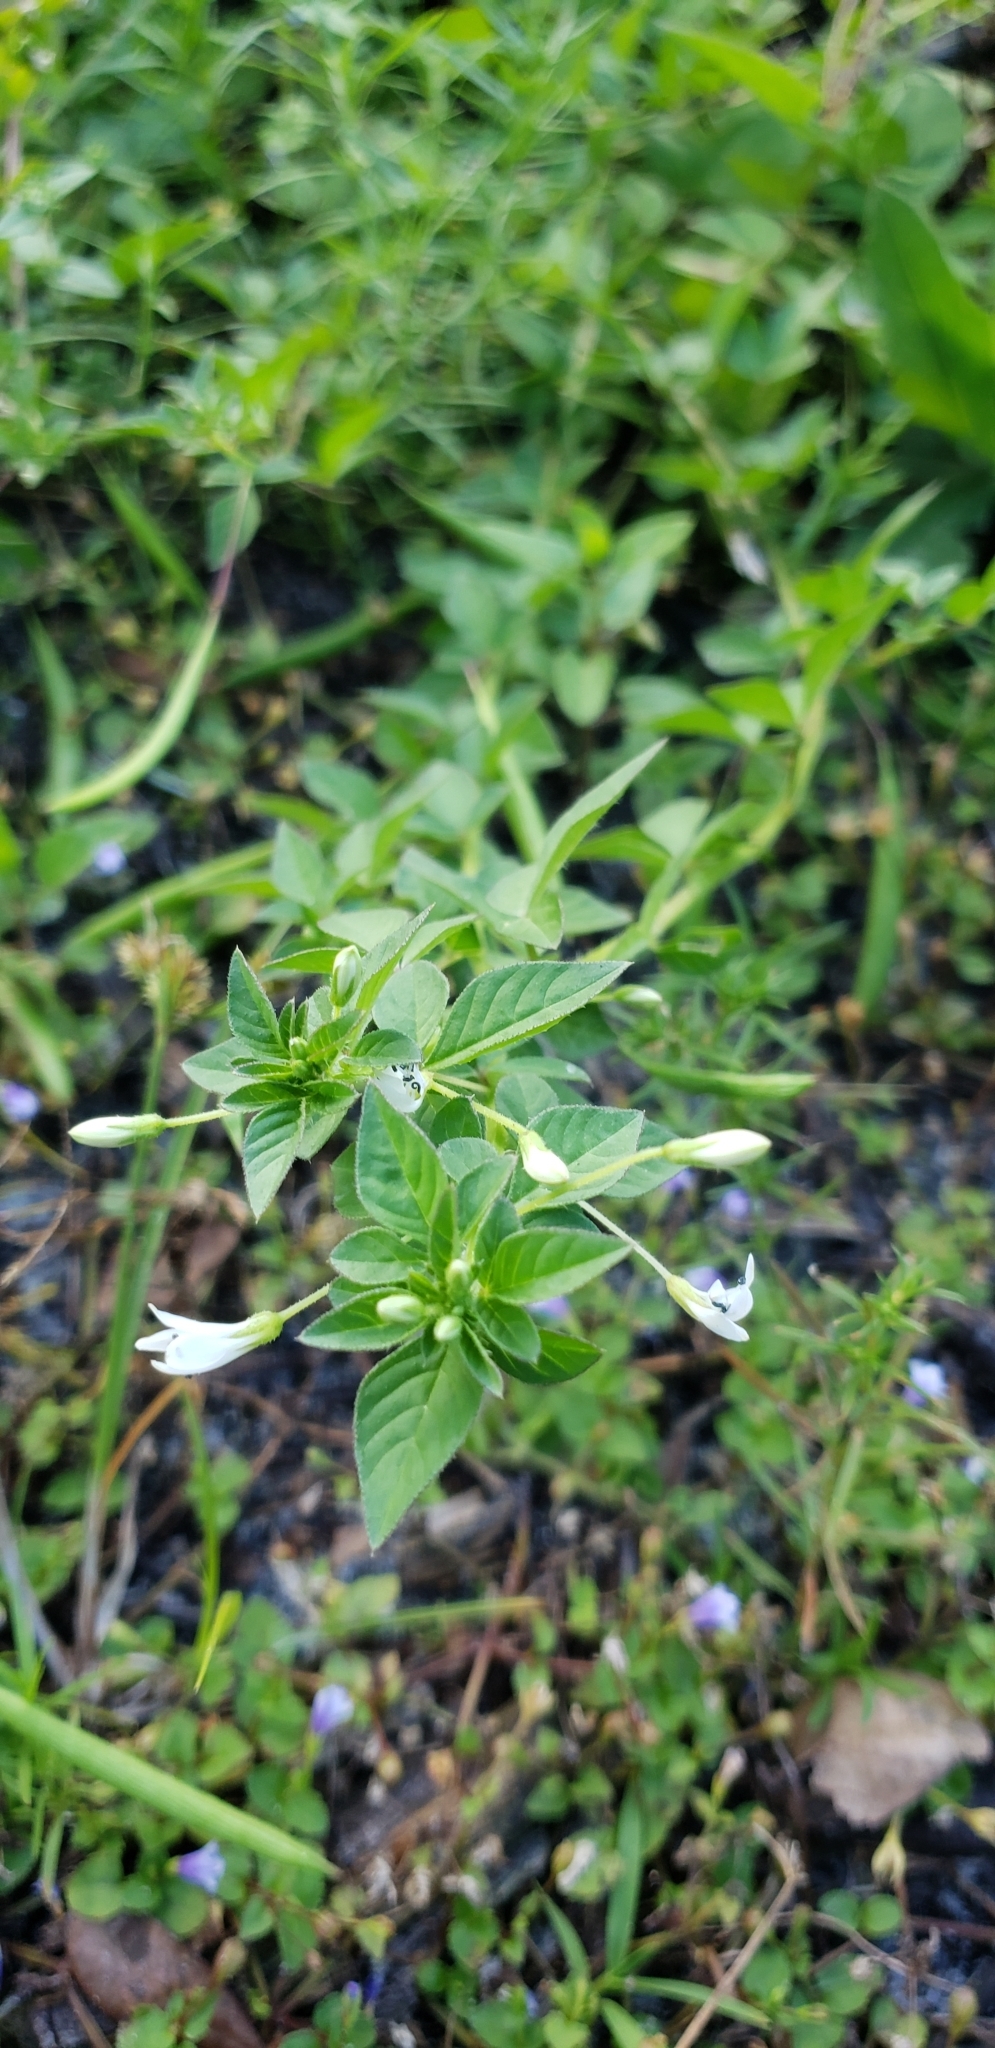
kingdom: Plantae
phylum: Tracheophyta
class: Magnoliopsida
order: Brassicales
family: Cleomaceae
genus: Sieruela
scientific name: Sieruela rutidosperma
